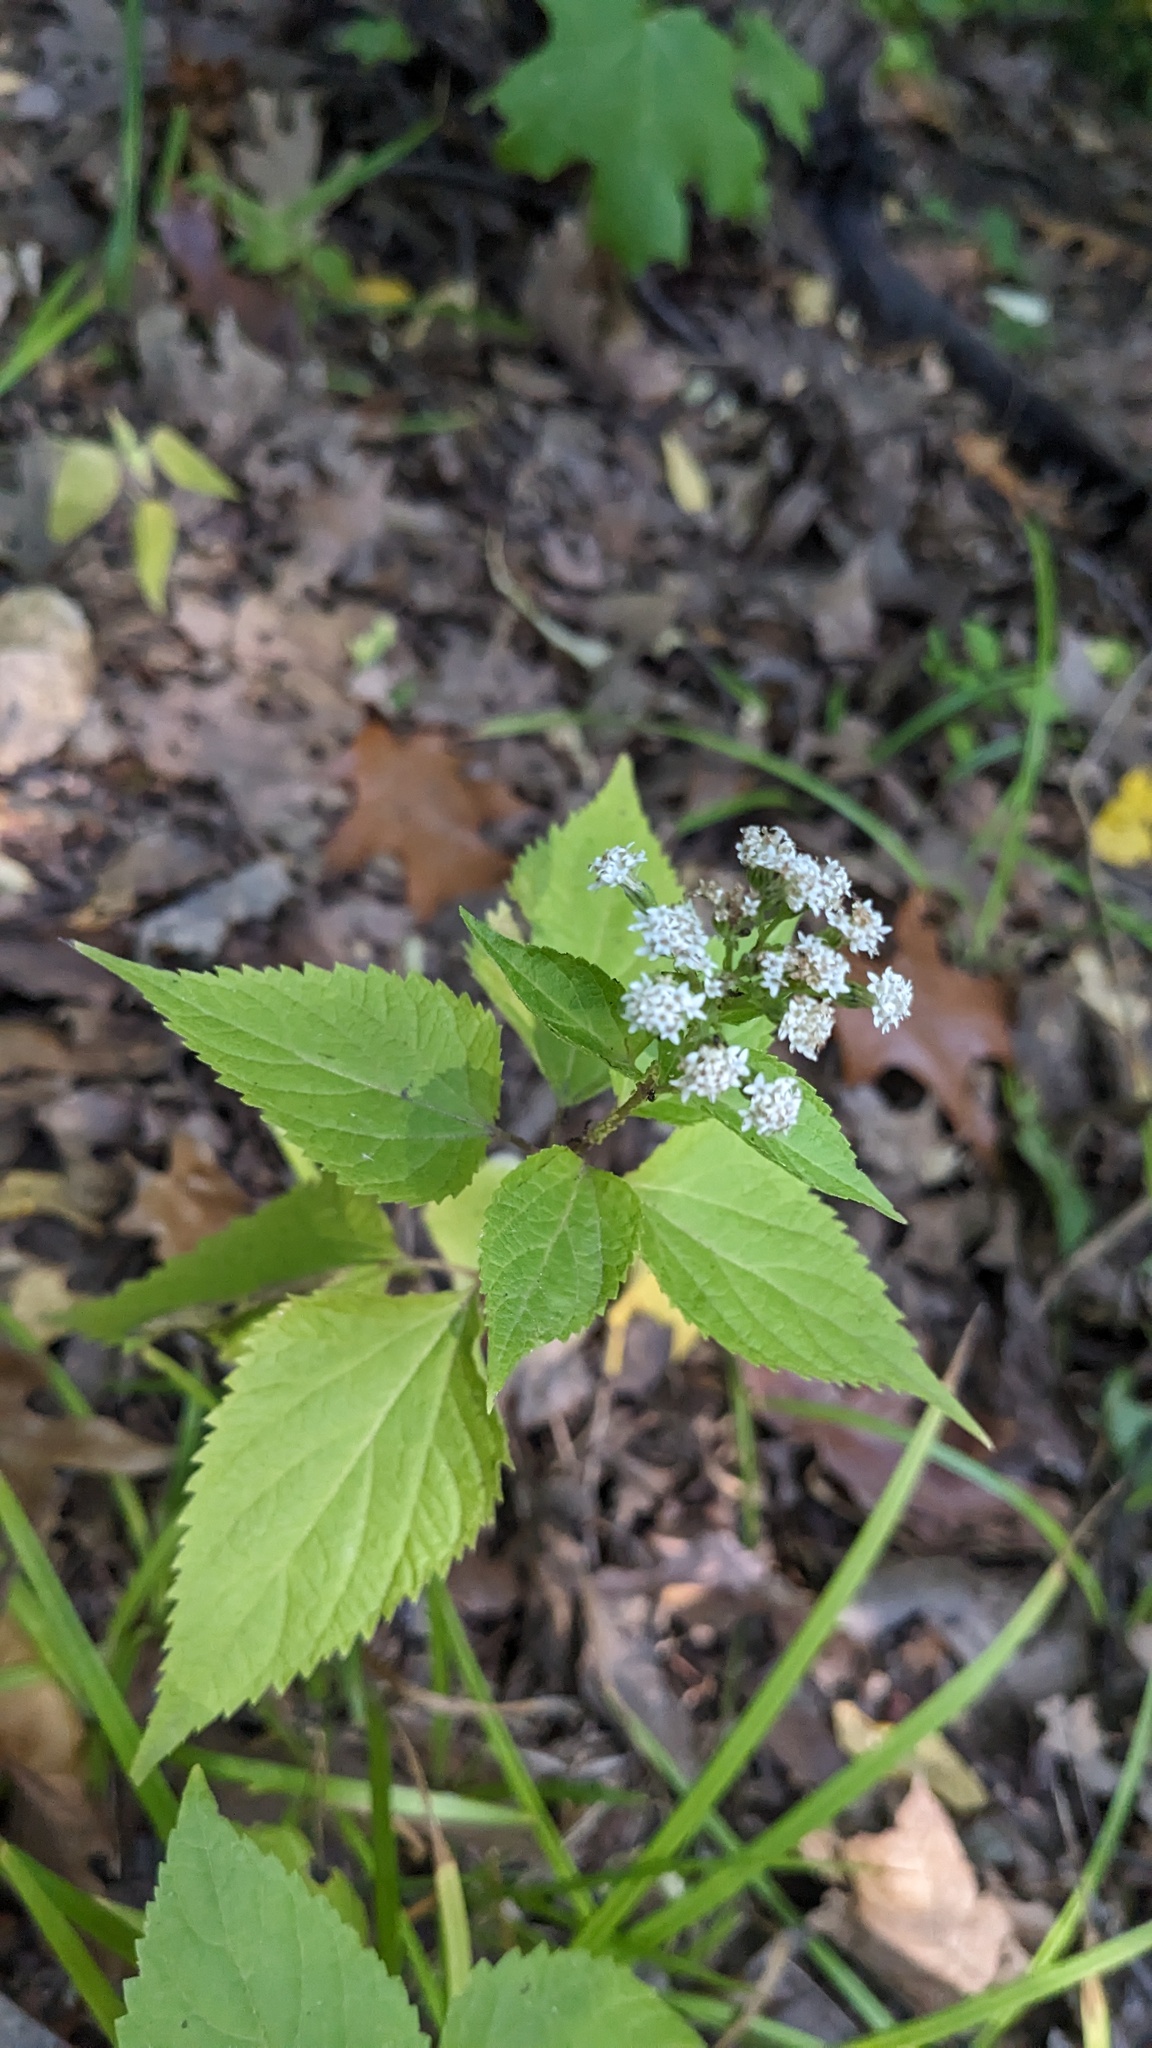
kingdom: Plantae
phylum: Tracheophyta
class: Magnoliopsida
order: Asterales
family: Asteraceae
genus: Ageratina
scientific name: Ageratina altissima
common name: White snakeroot
